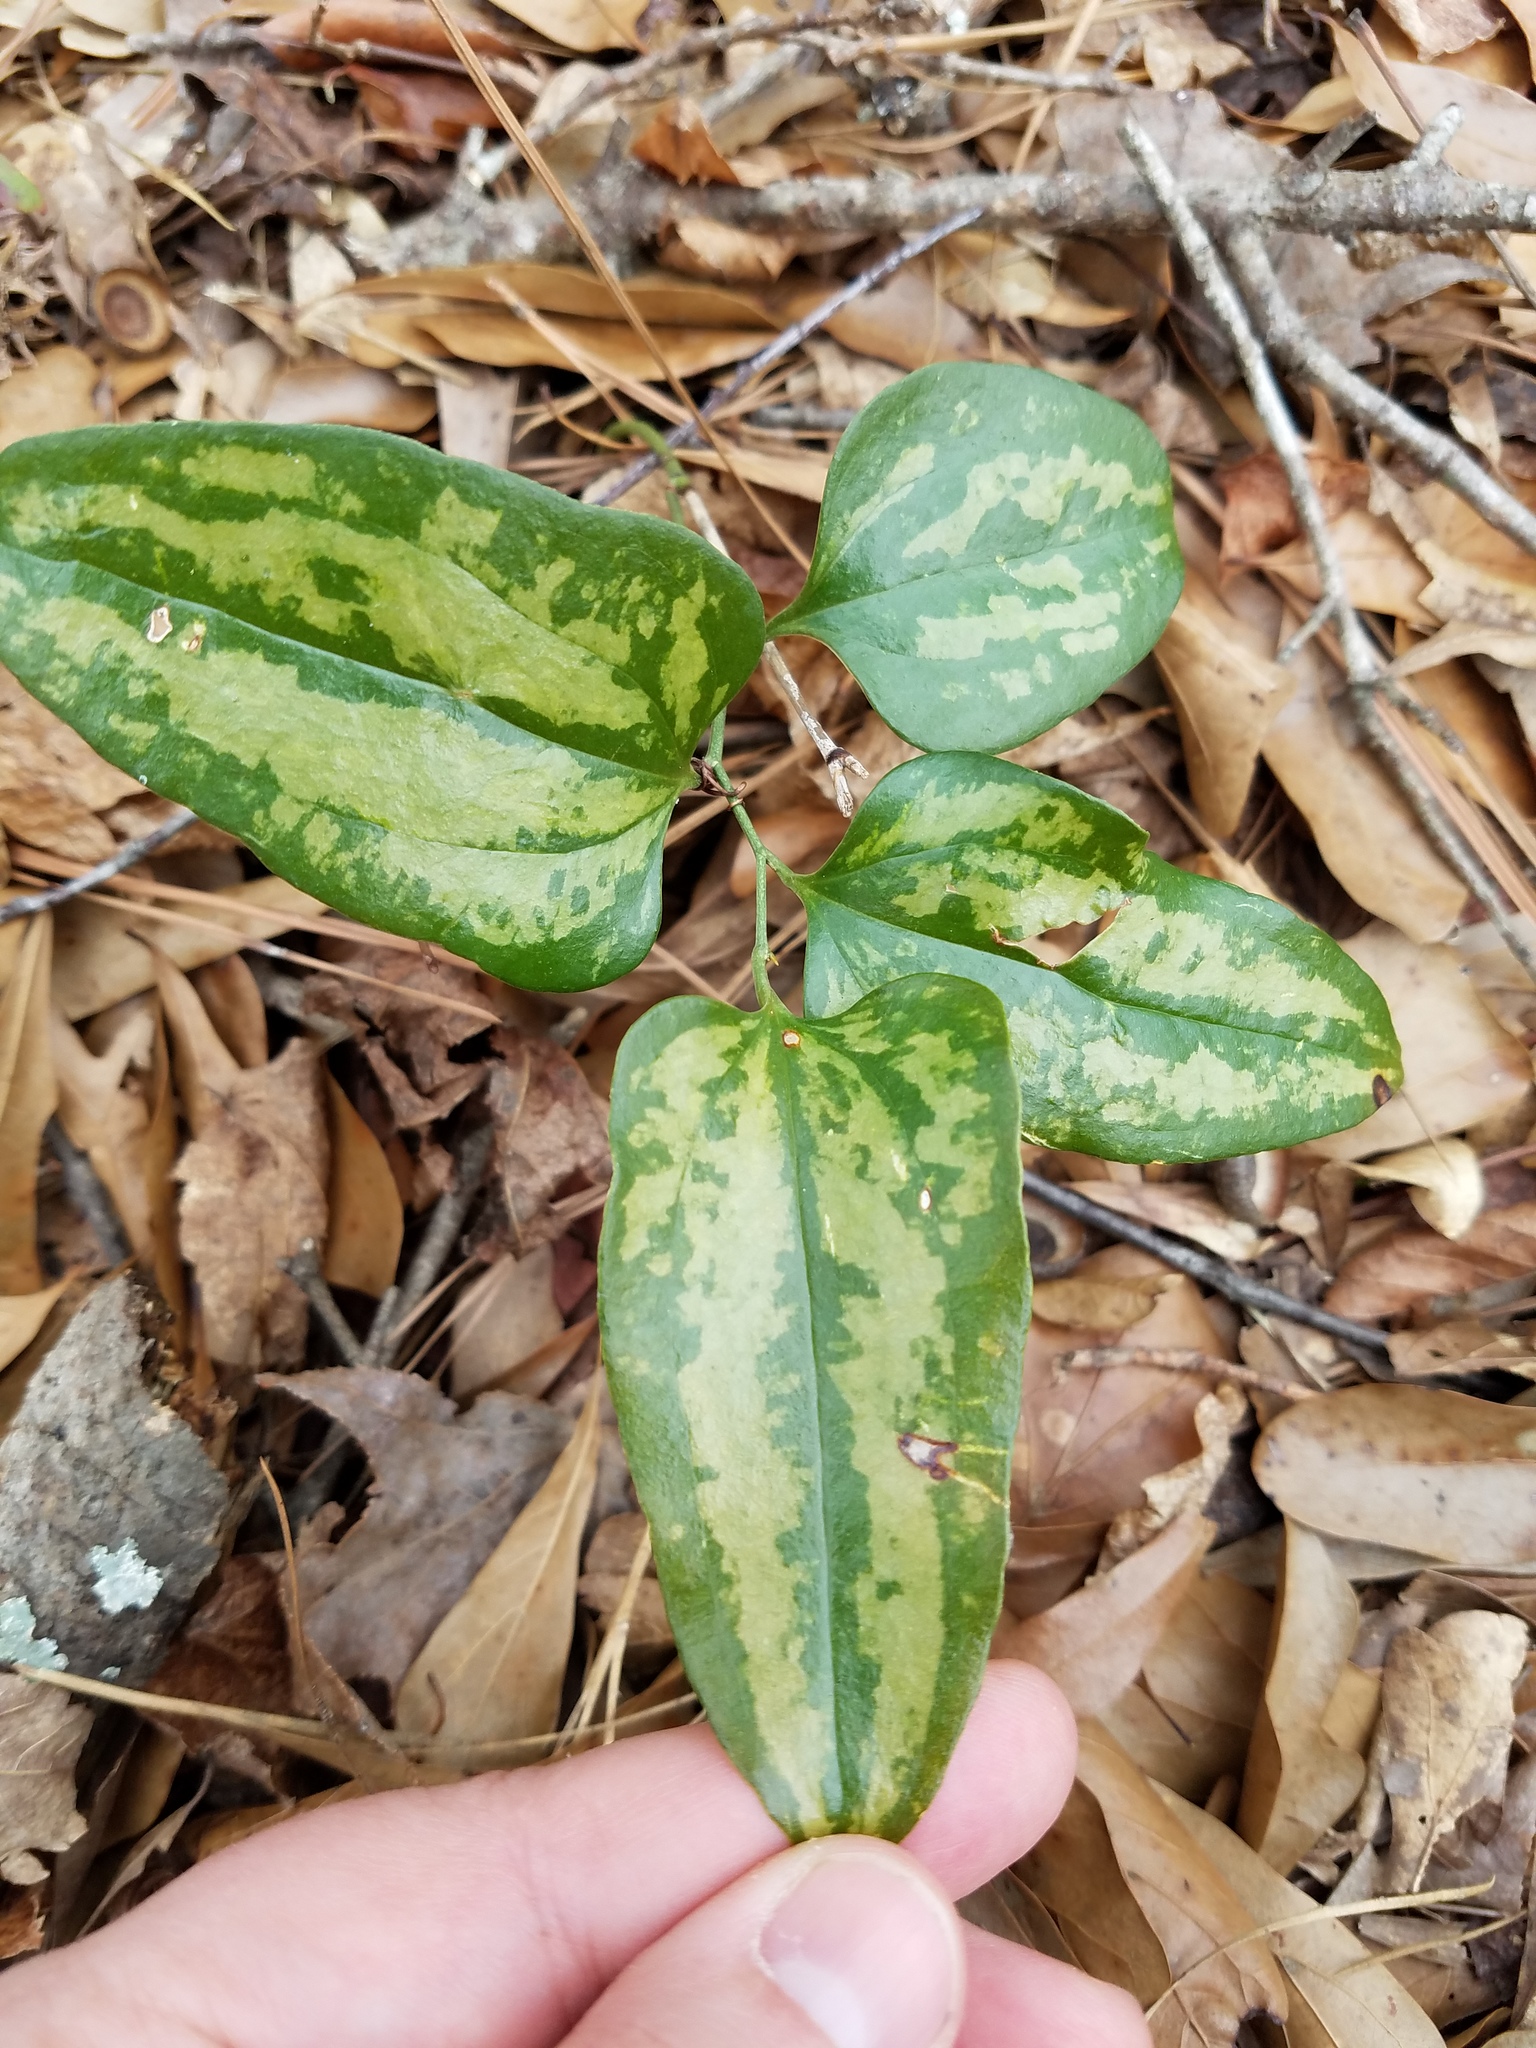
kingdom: Plantae
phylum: Tracheophyta
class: Liliopsida
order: Liliales
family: Smilacaceae
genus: Smilax
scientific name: Smilax maritima
